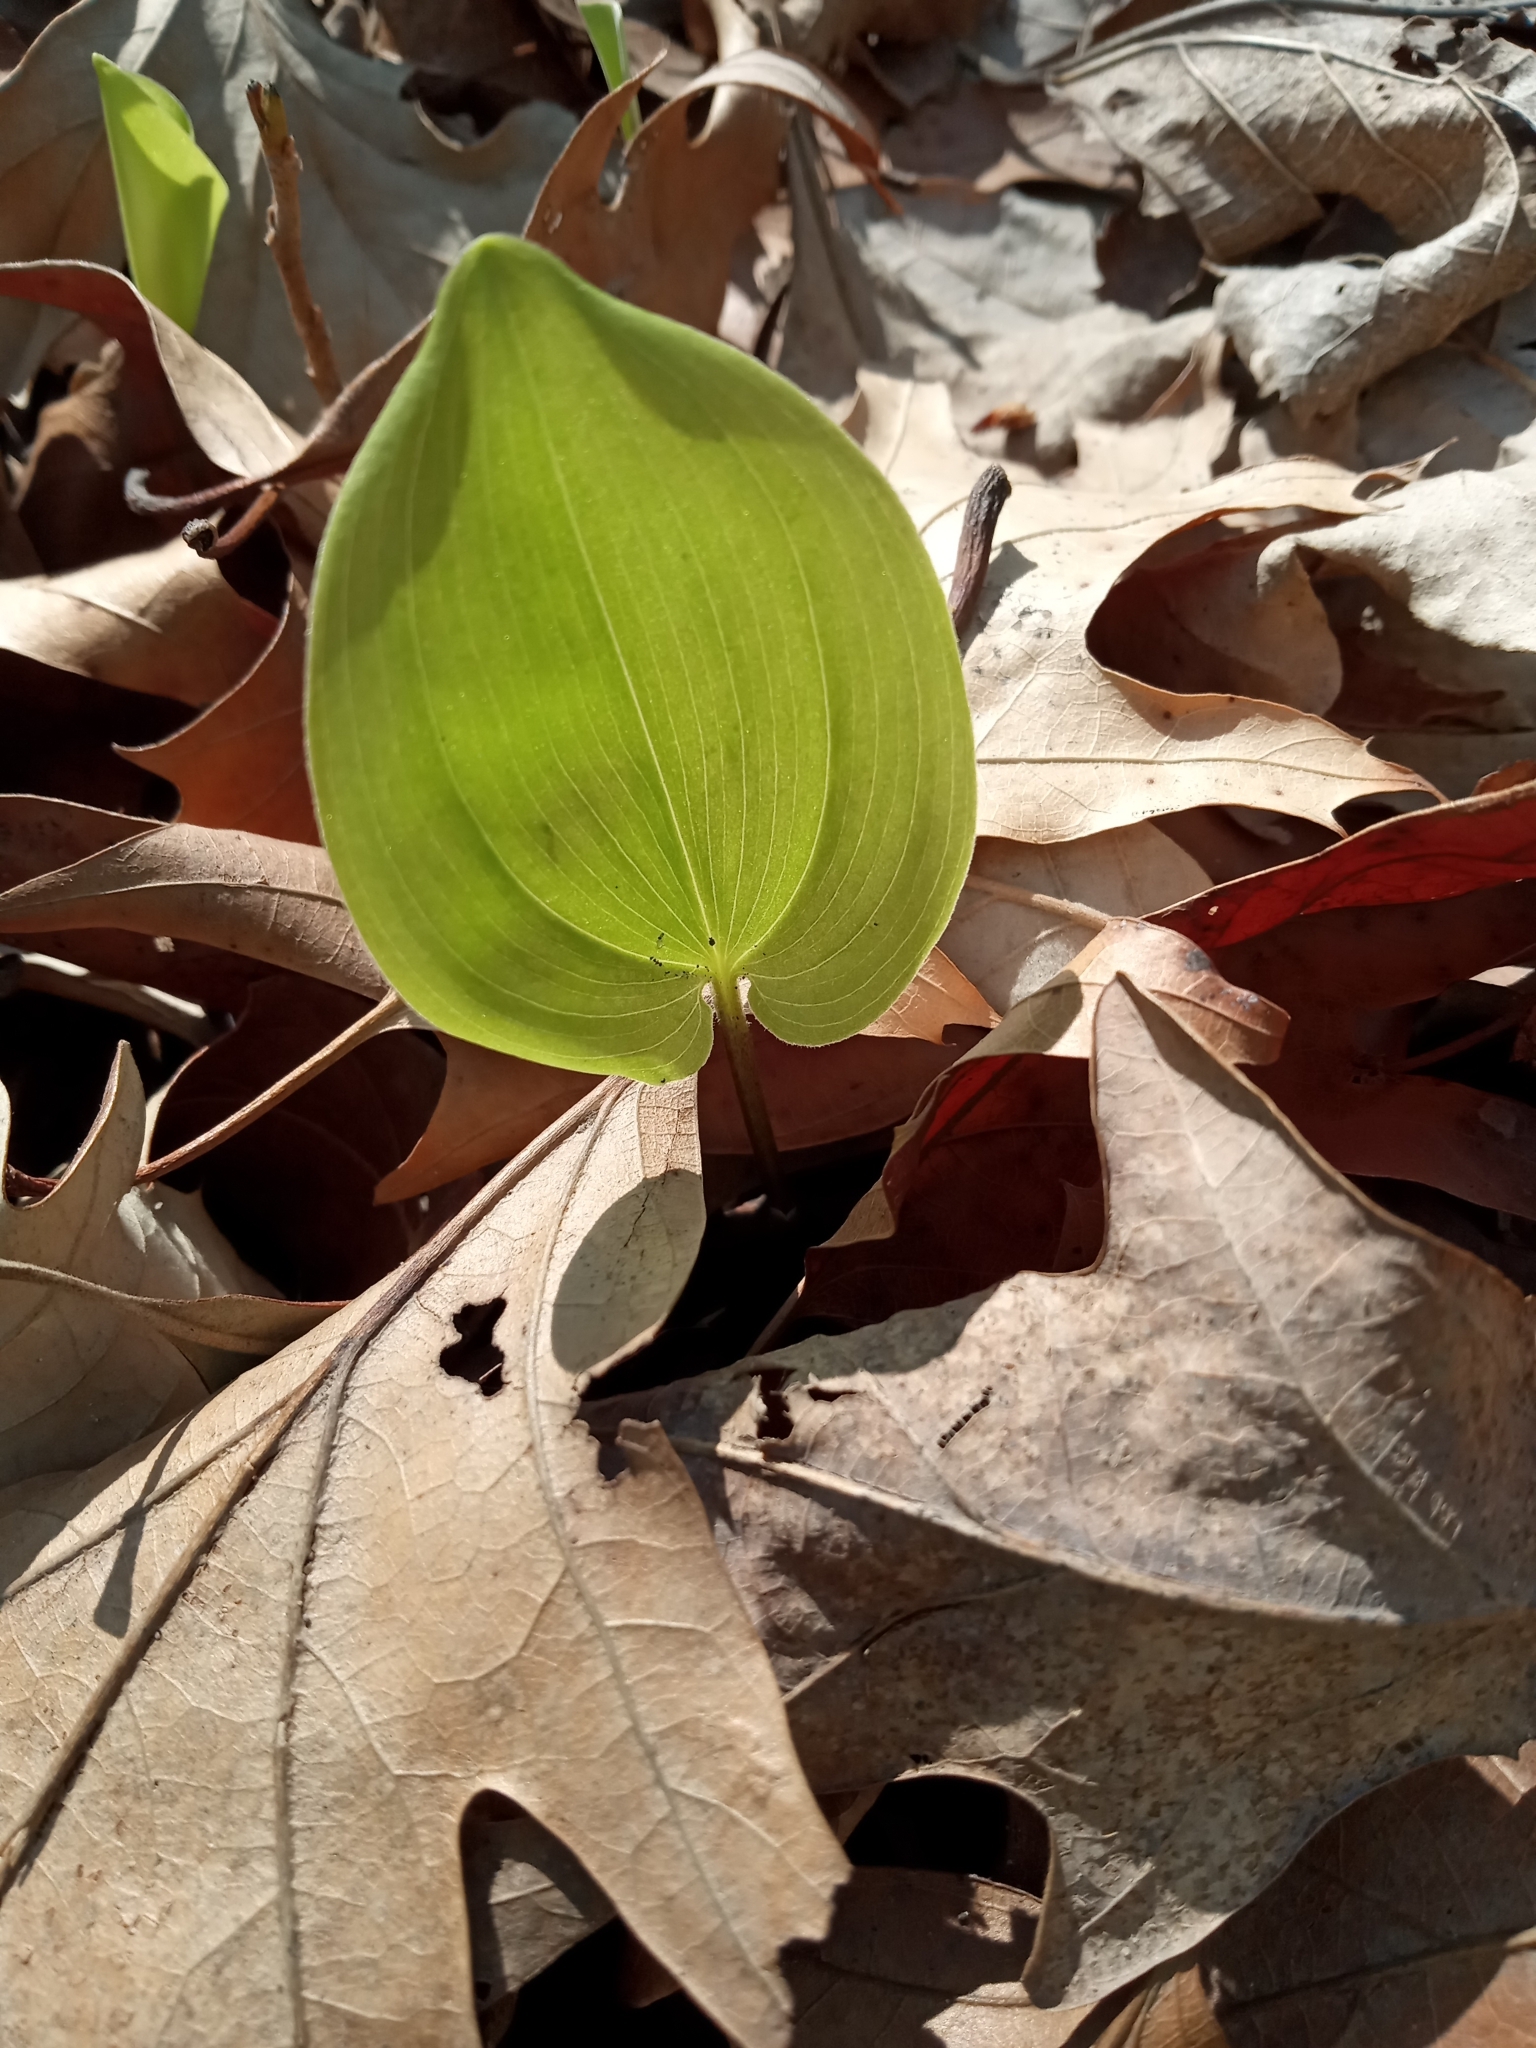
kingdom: Plantae
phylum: Tracheophyta
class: Liliopsida
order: Asparagales
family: Asparagaceae
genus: Maianthemum
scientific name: Maianthemum canadense
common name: False lily-of-the-valley
